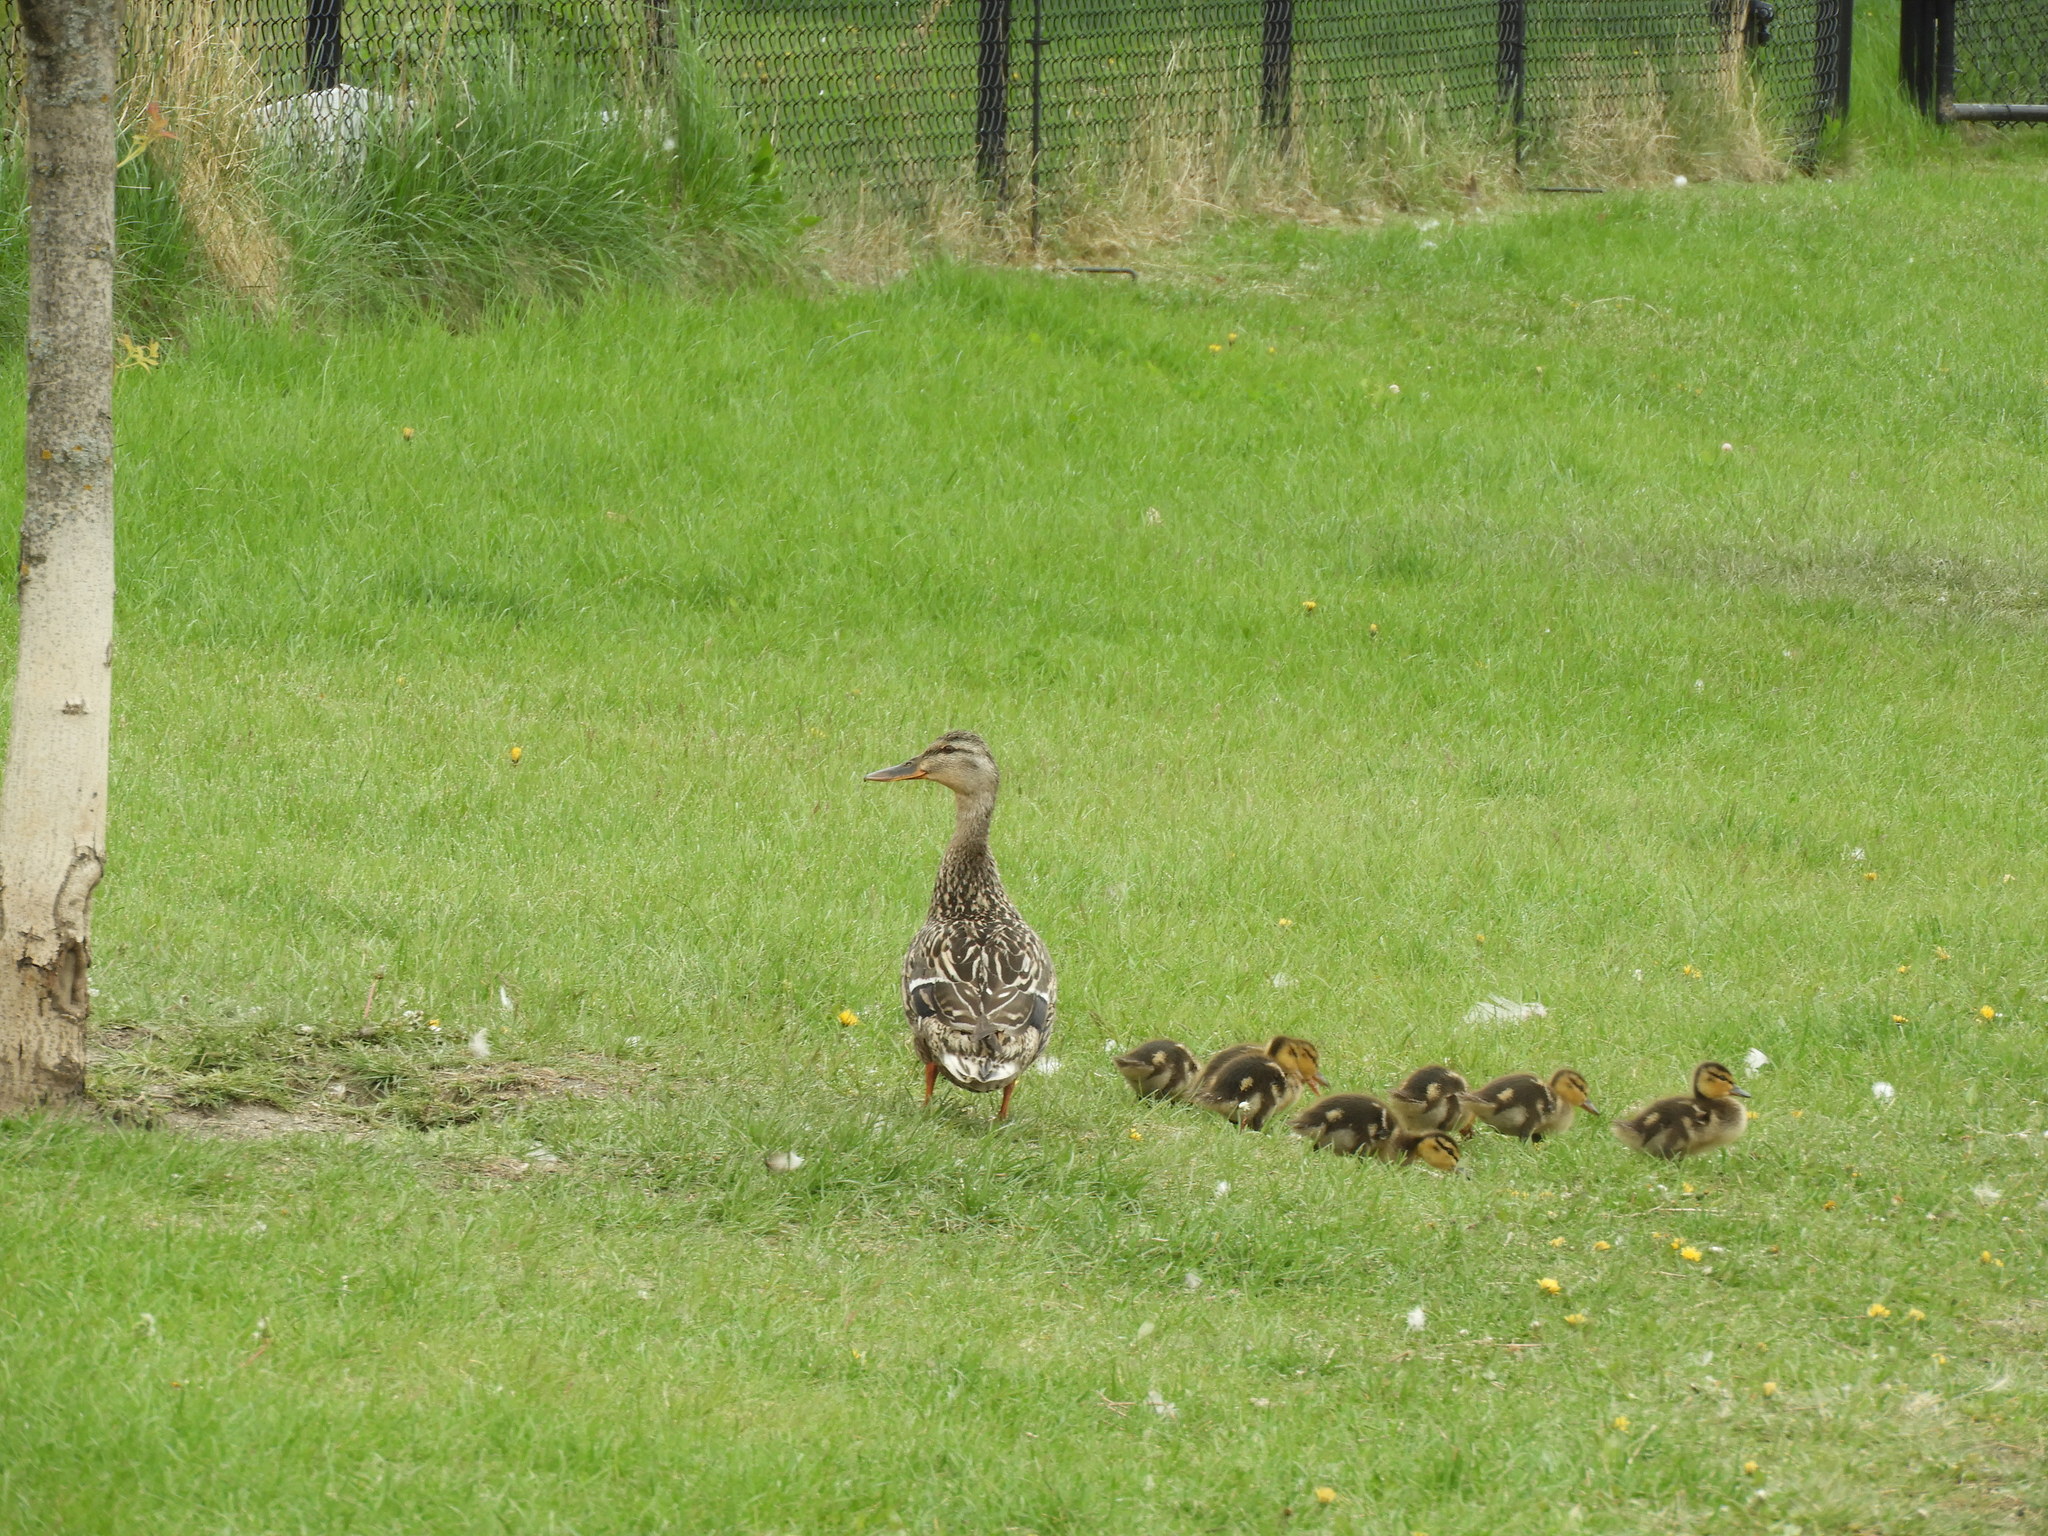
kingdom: Animalia
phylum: Chordata
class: Aves
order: Anseriformes
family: Anatidae
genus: Anas
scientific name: Anas platyrhynchos
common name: Mallard
